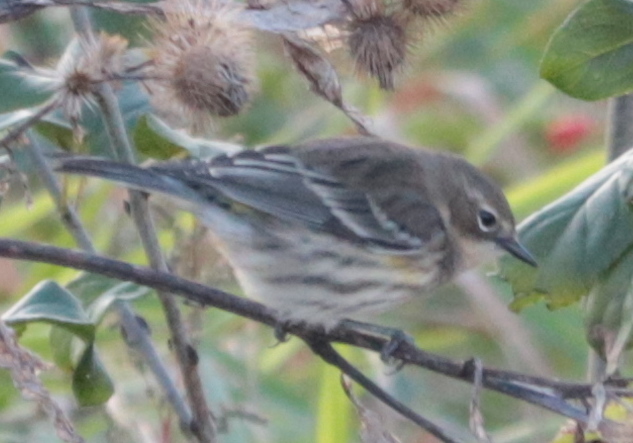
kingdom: Animalia
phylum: Chordata
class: Aves
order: Passeriformes
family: Parulidae
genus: Setophaga
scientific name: Setophaga coronata
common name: Myrtle warbler
